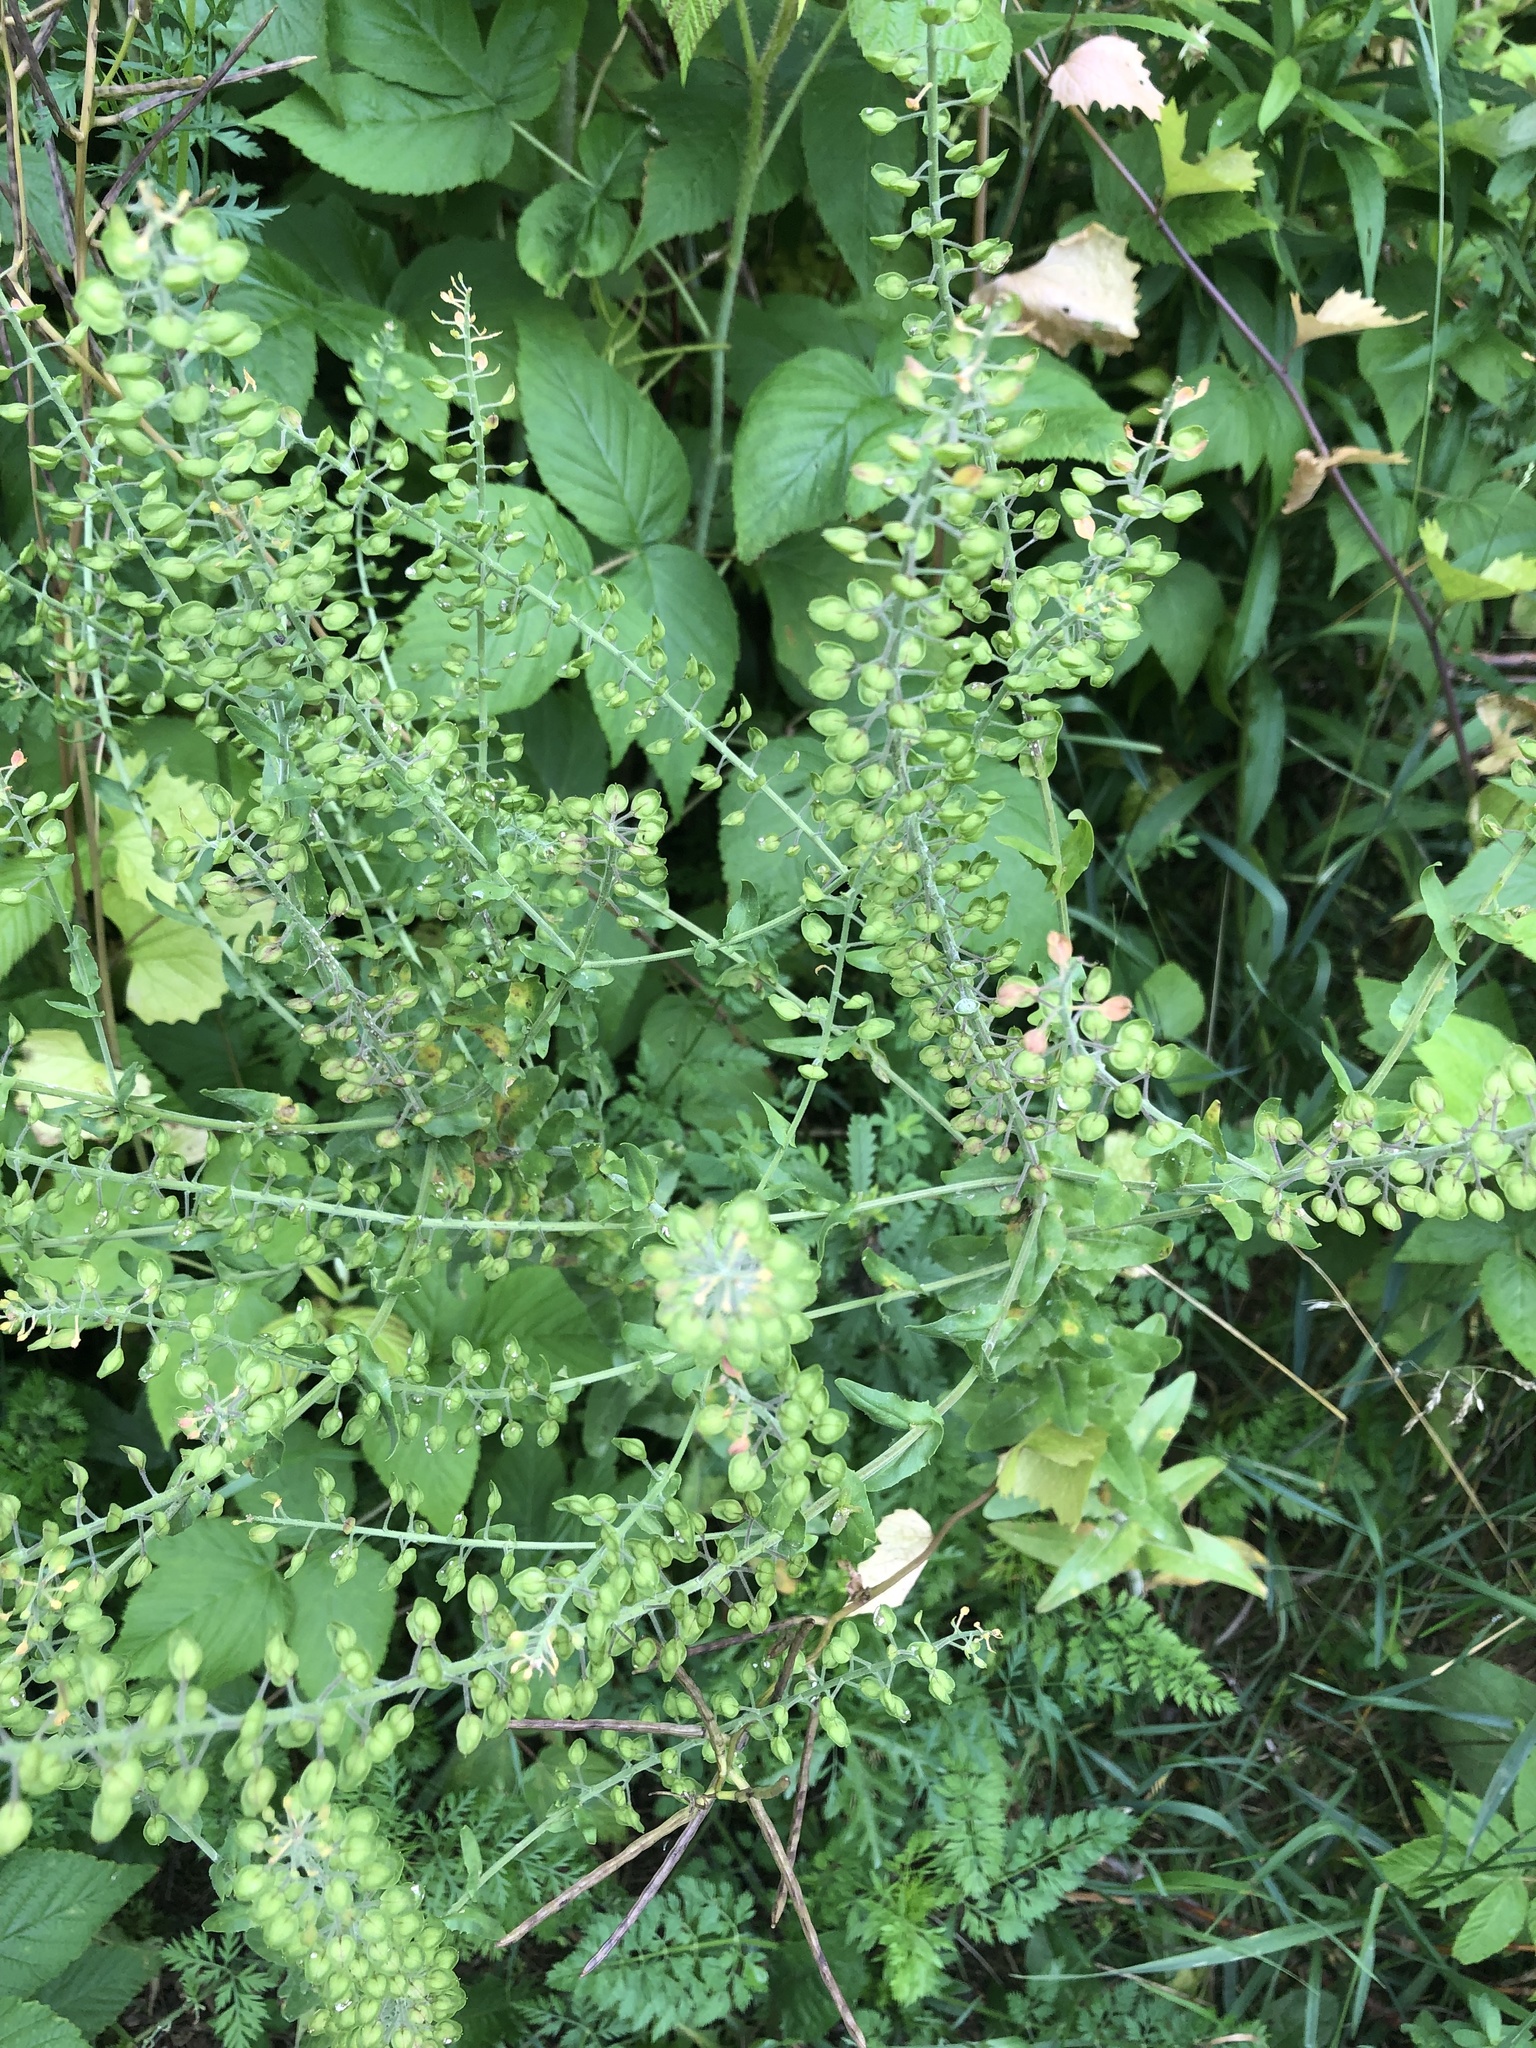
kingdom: Plantae
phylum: Tracheophyta
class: Magnoliopsida
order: Brassicales
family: Brassicaceae
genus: Lepidium
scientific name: Lepidium campestre
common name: Field pepperwort
